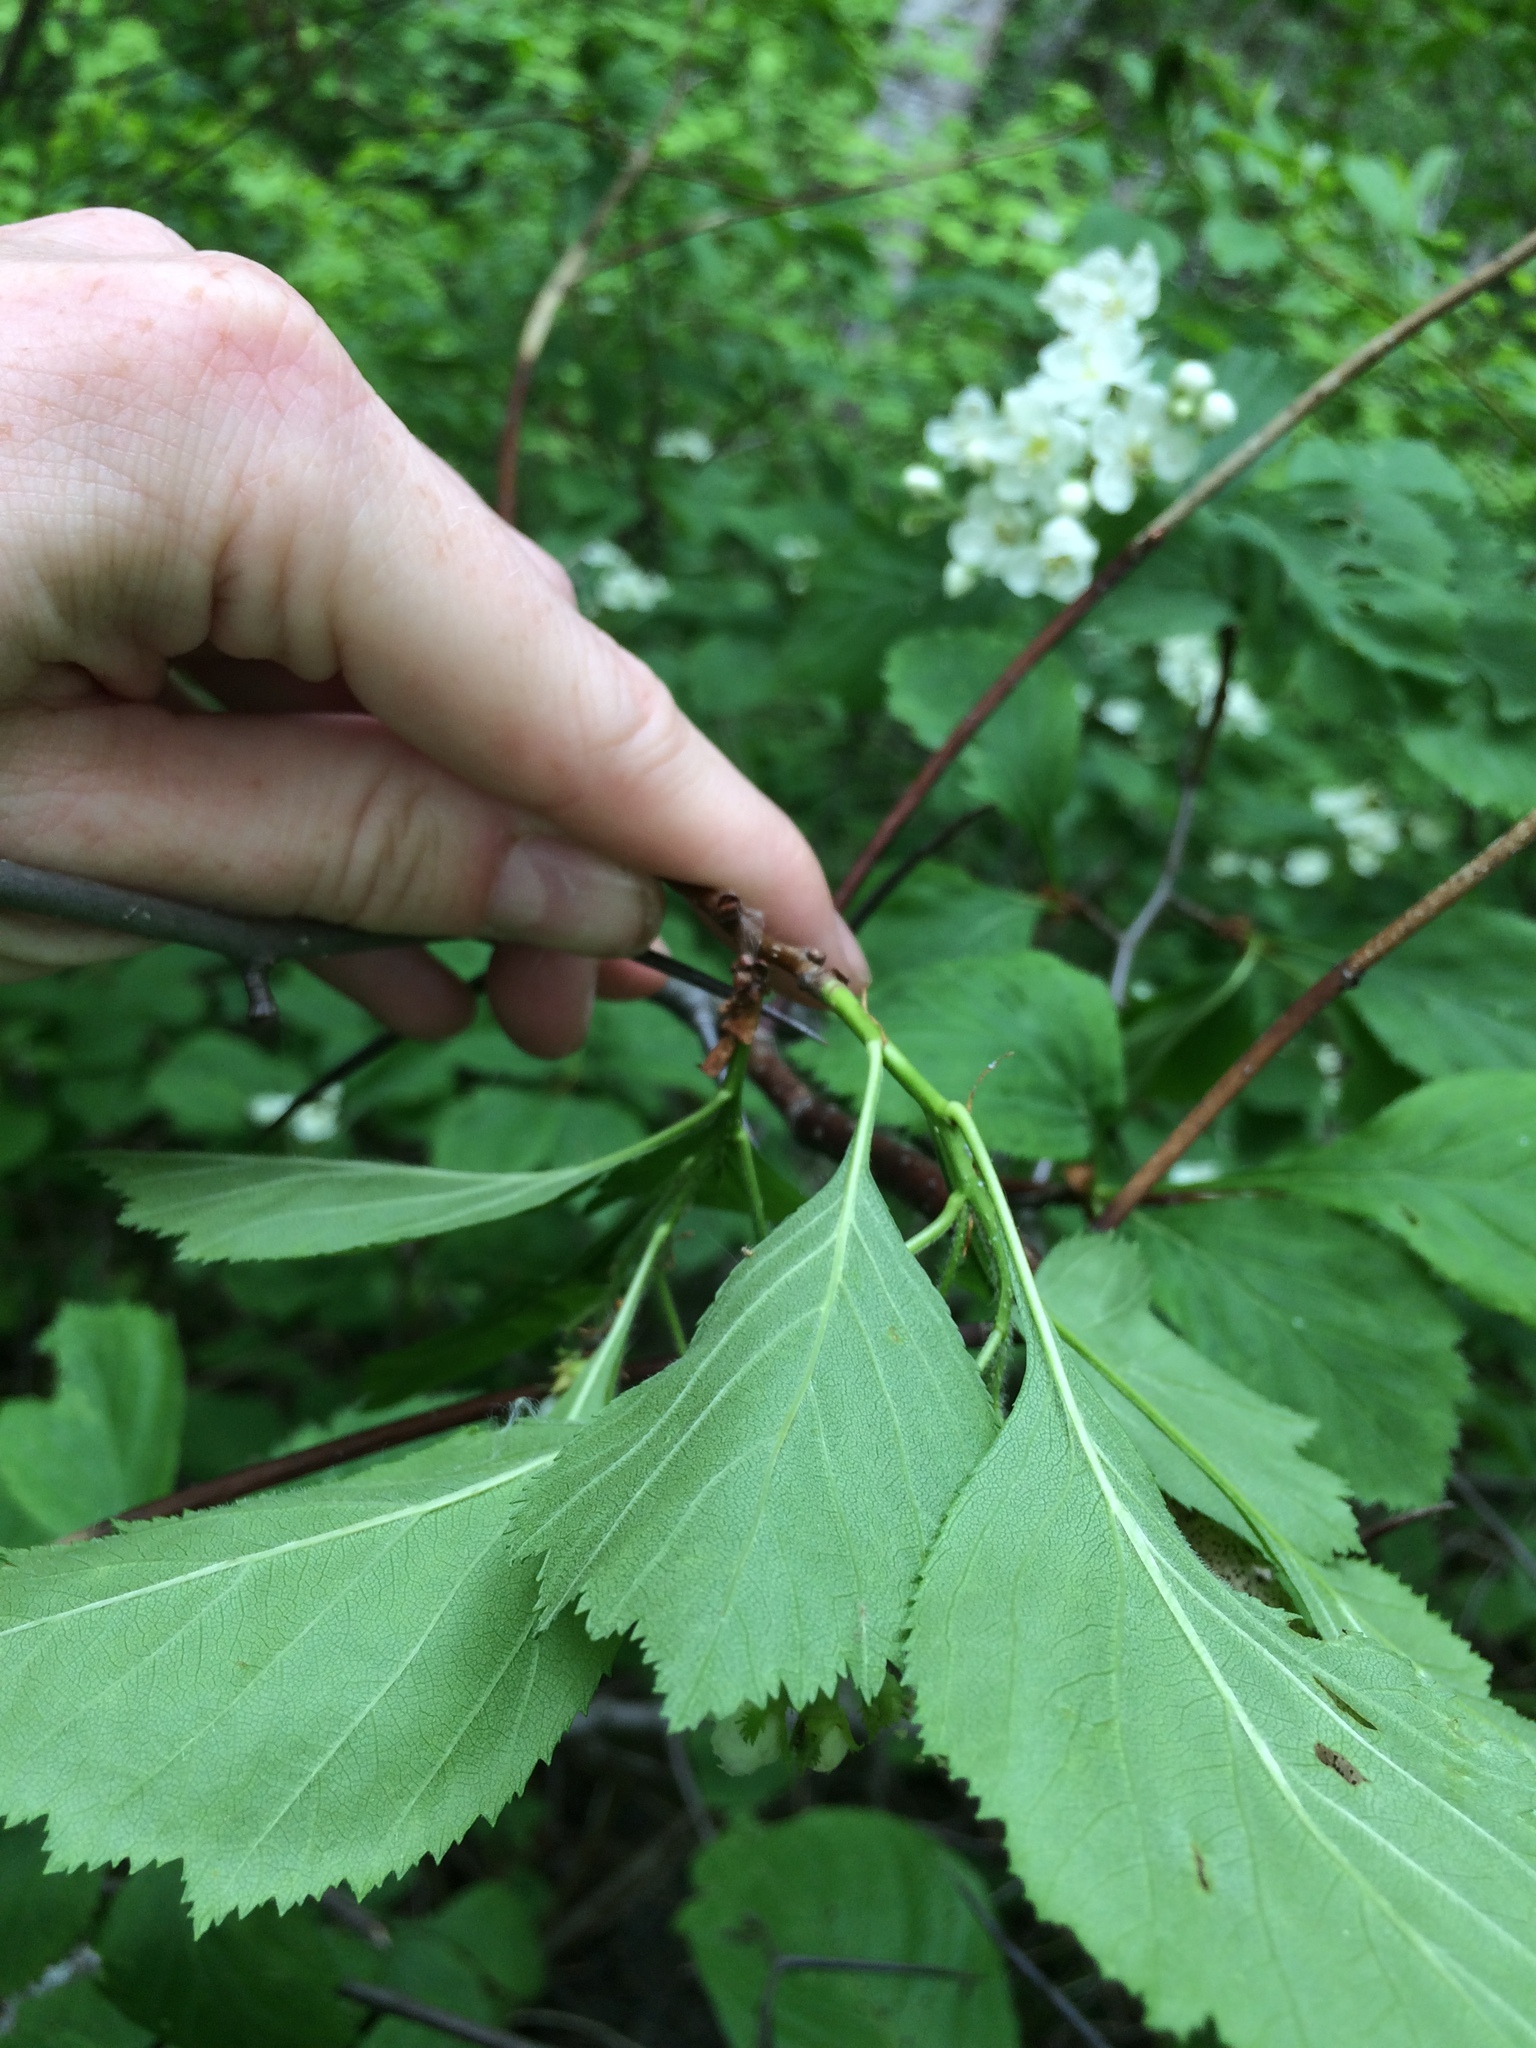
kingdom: Plantae
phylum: Tracheophyta
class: Magnoliopsida
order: Rosales
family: Rosaceae
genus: Crataegus
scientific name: Crataegus macracantha
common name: Large-thorn hawthorn
